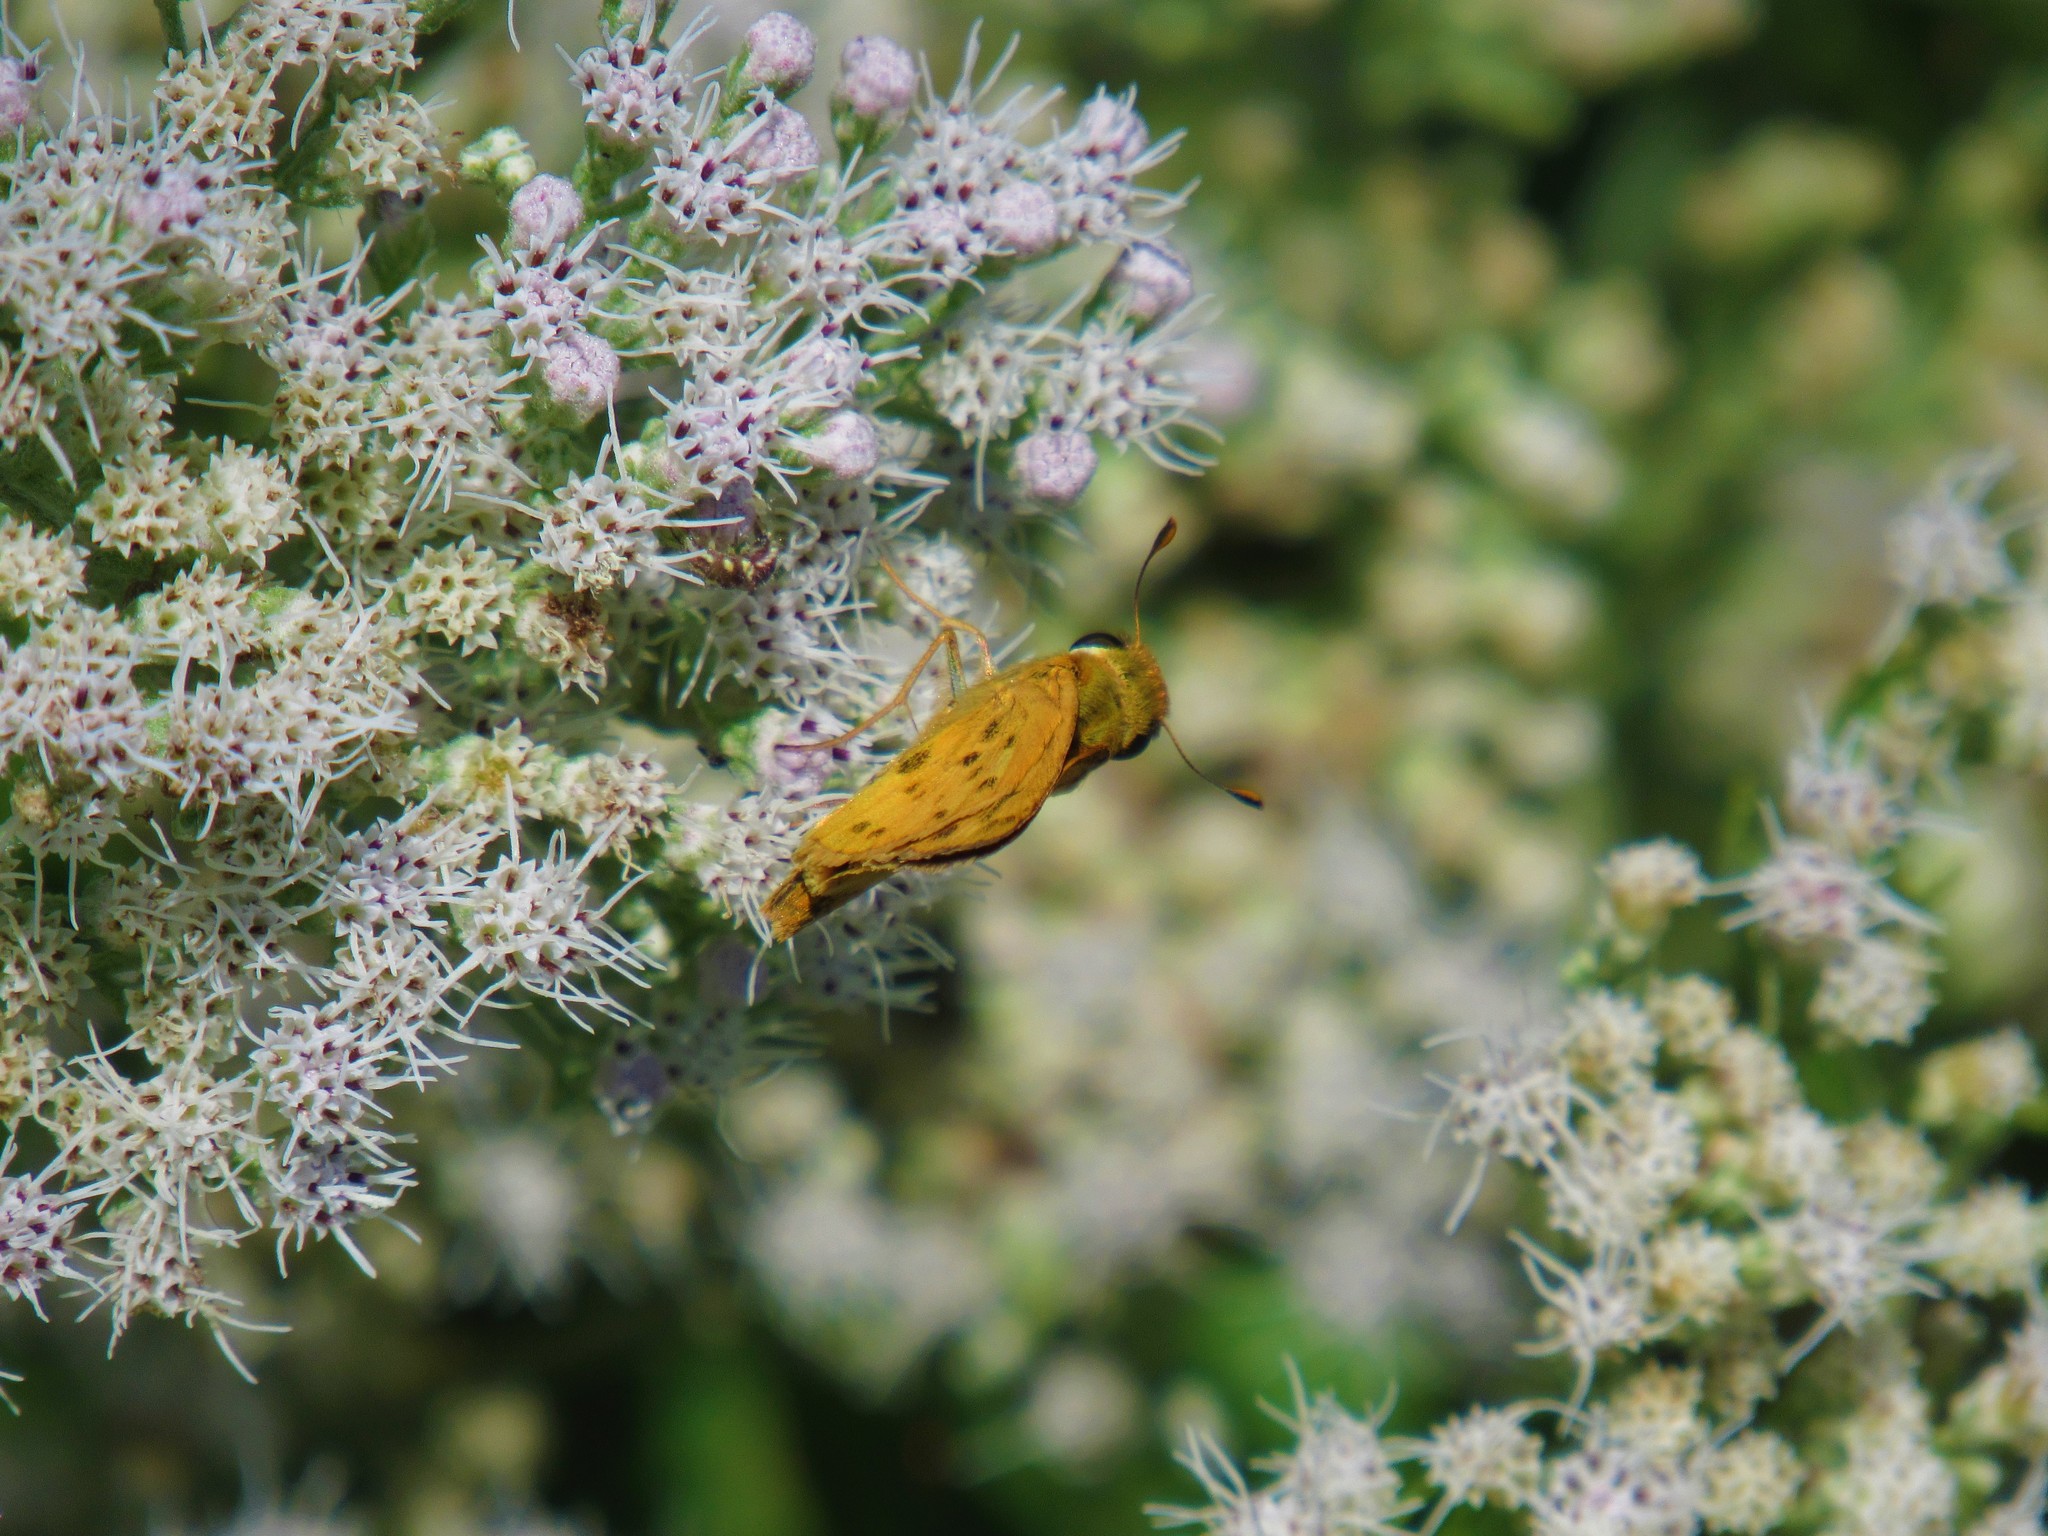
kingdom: Animalia
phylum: Arthropoda
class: Insecta
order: Lepidoptera
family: Hesperiidae
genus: Hylephila
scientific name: Hylephila phyleus
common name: Fiery skipper
